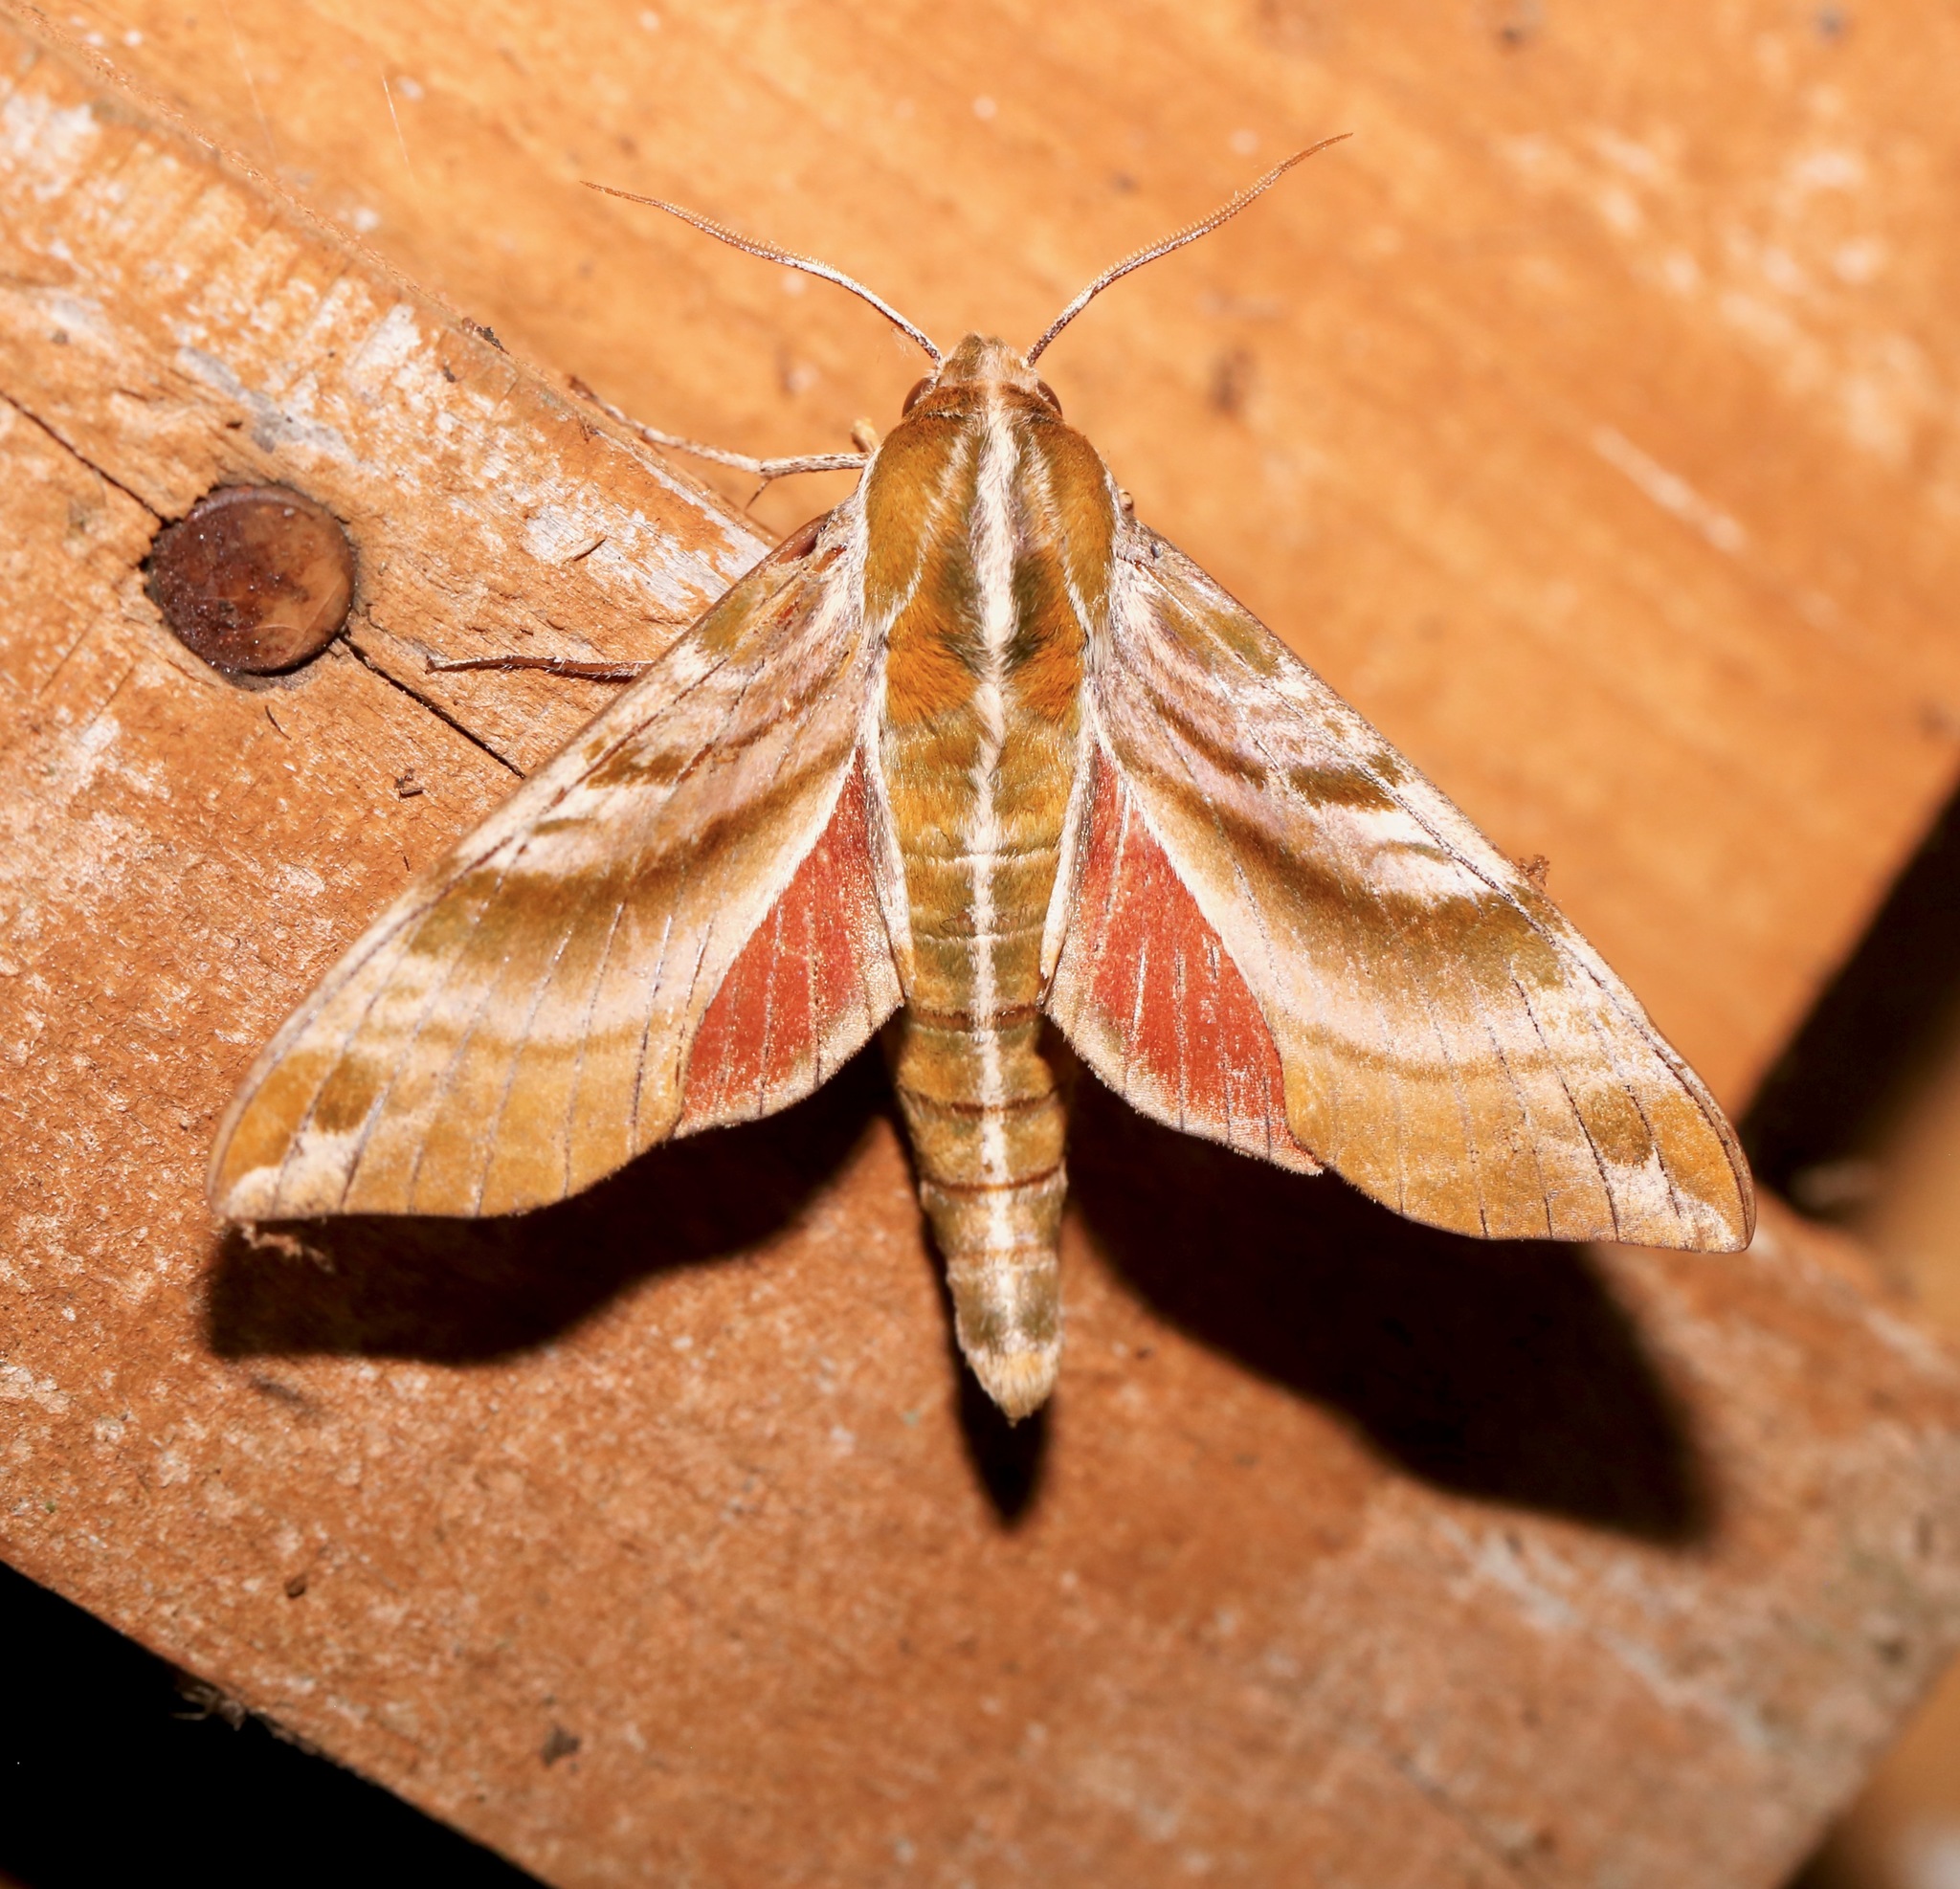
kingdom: Animalia
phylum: Arthropoda
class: Insecta
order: Lepidoptera
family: Sphingidae
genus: Darapsa
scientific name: Darapsa versicolor
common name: Hydrangea sphinx
